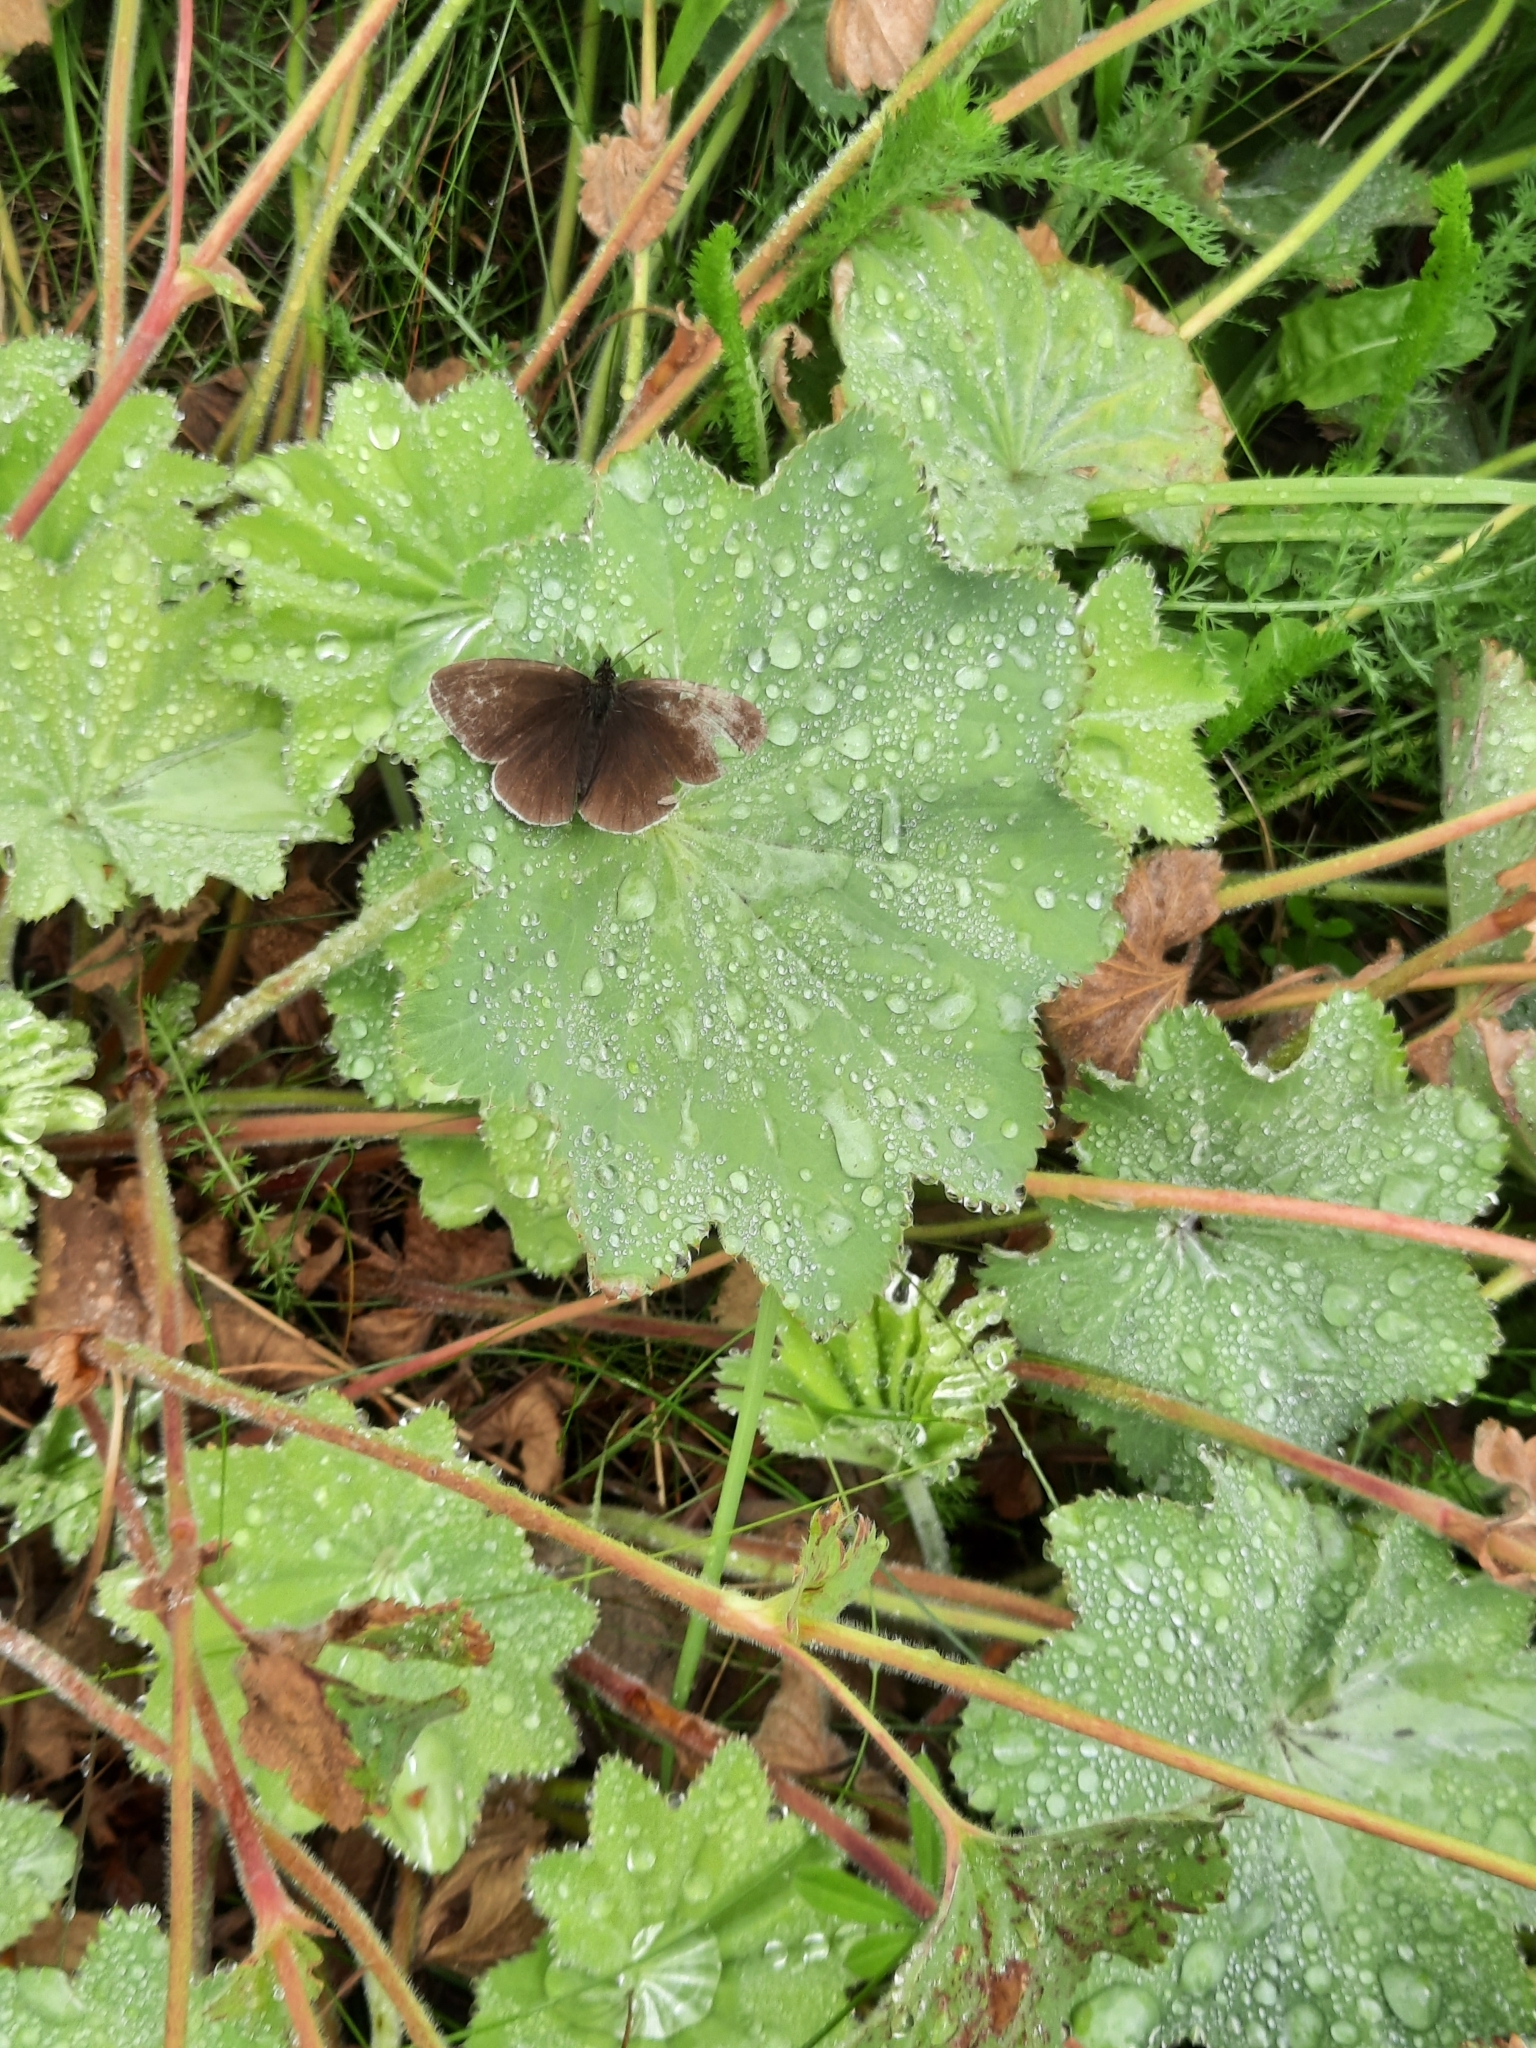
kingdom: Animalia
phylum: Arthropoda
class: Insecta
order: Lepidoptera
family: Nymphalidae
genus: Aphantopus
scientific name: Aphantopus hyperantus
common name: Ringlet
